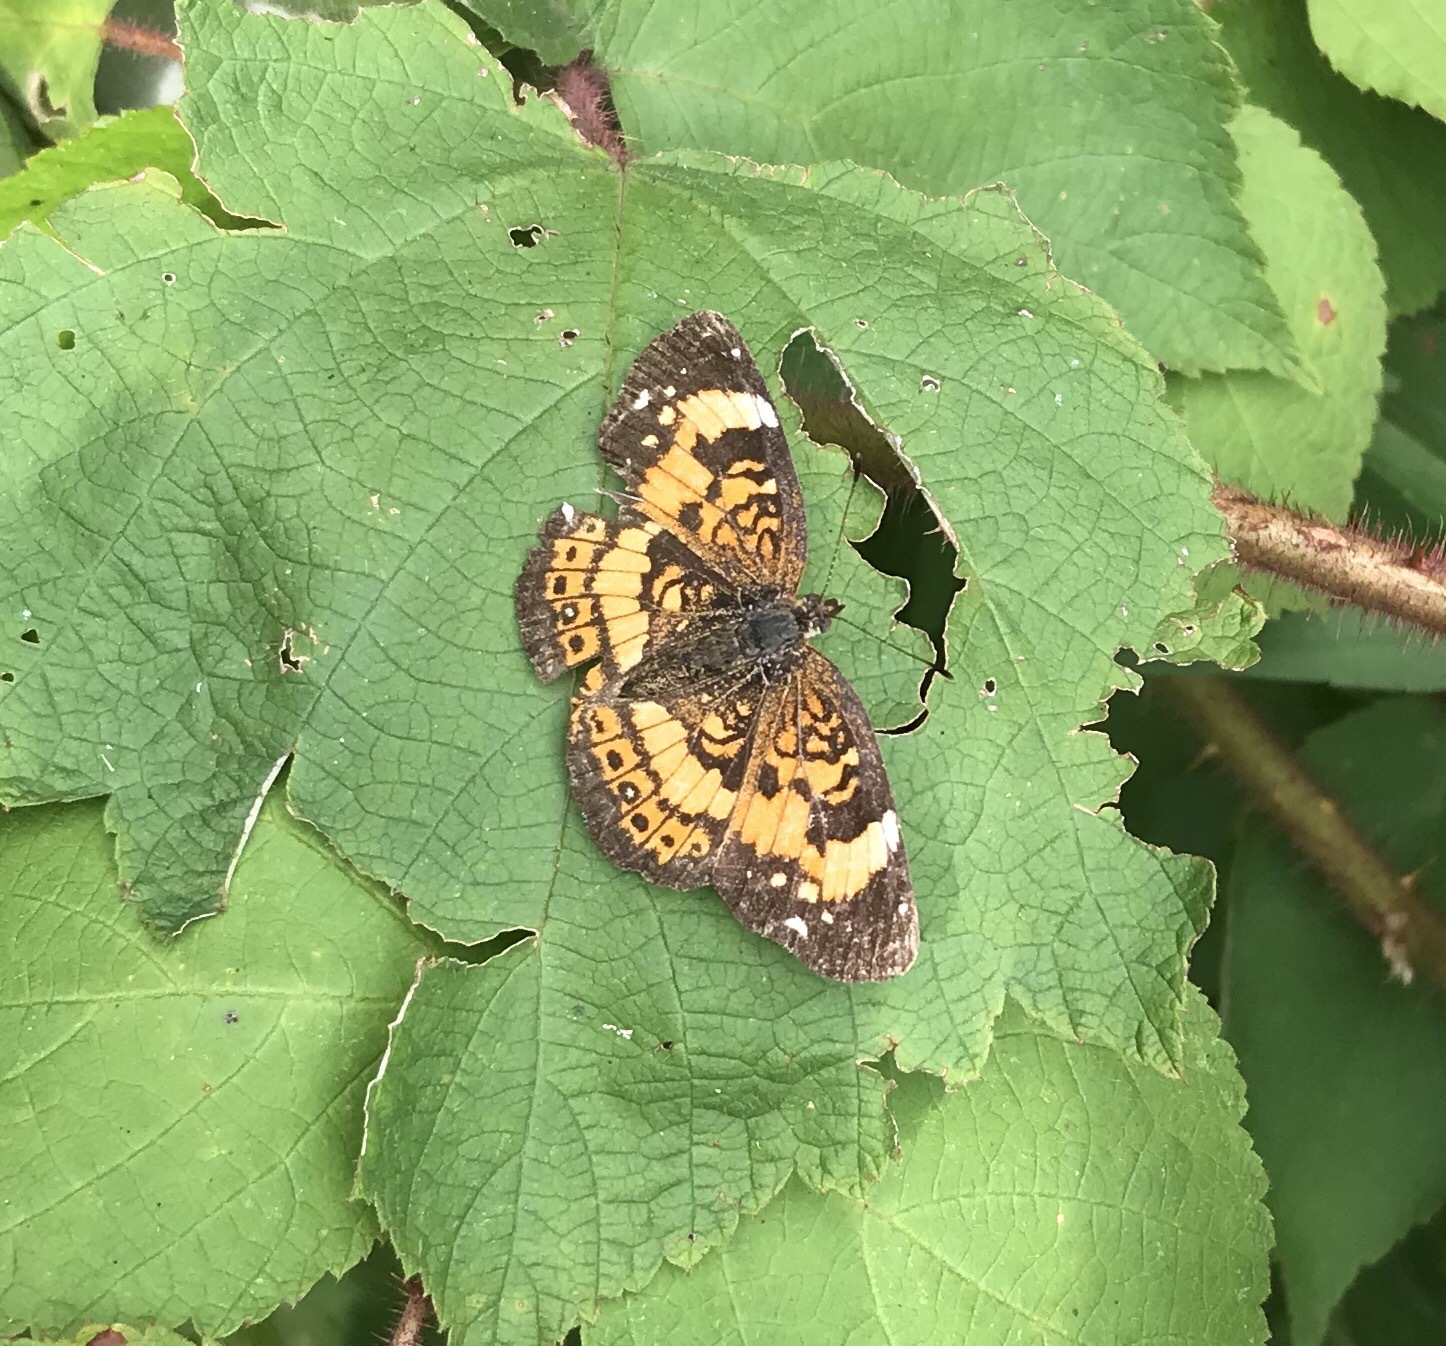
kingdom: Animalia
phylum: Arthropoda
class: Insecta
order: Lepidoptera
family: Nymphalidae
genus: Chlosyne
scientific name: Chlosyne nycteis
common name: Silvery checkerspot
